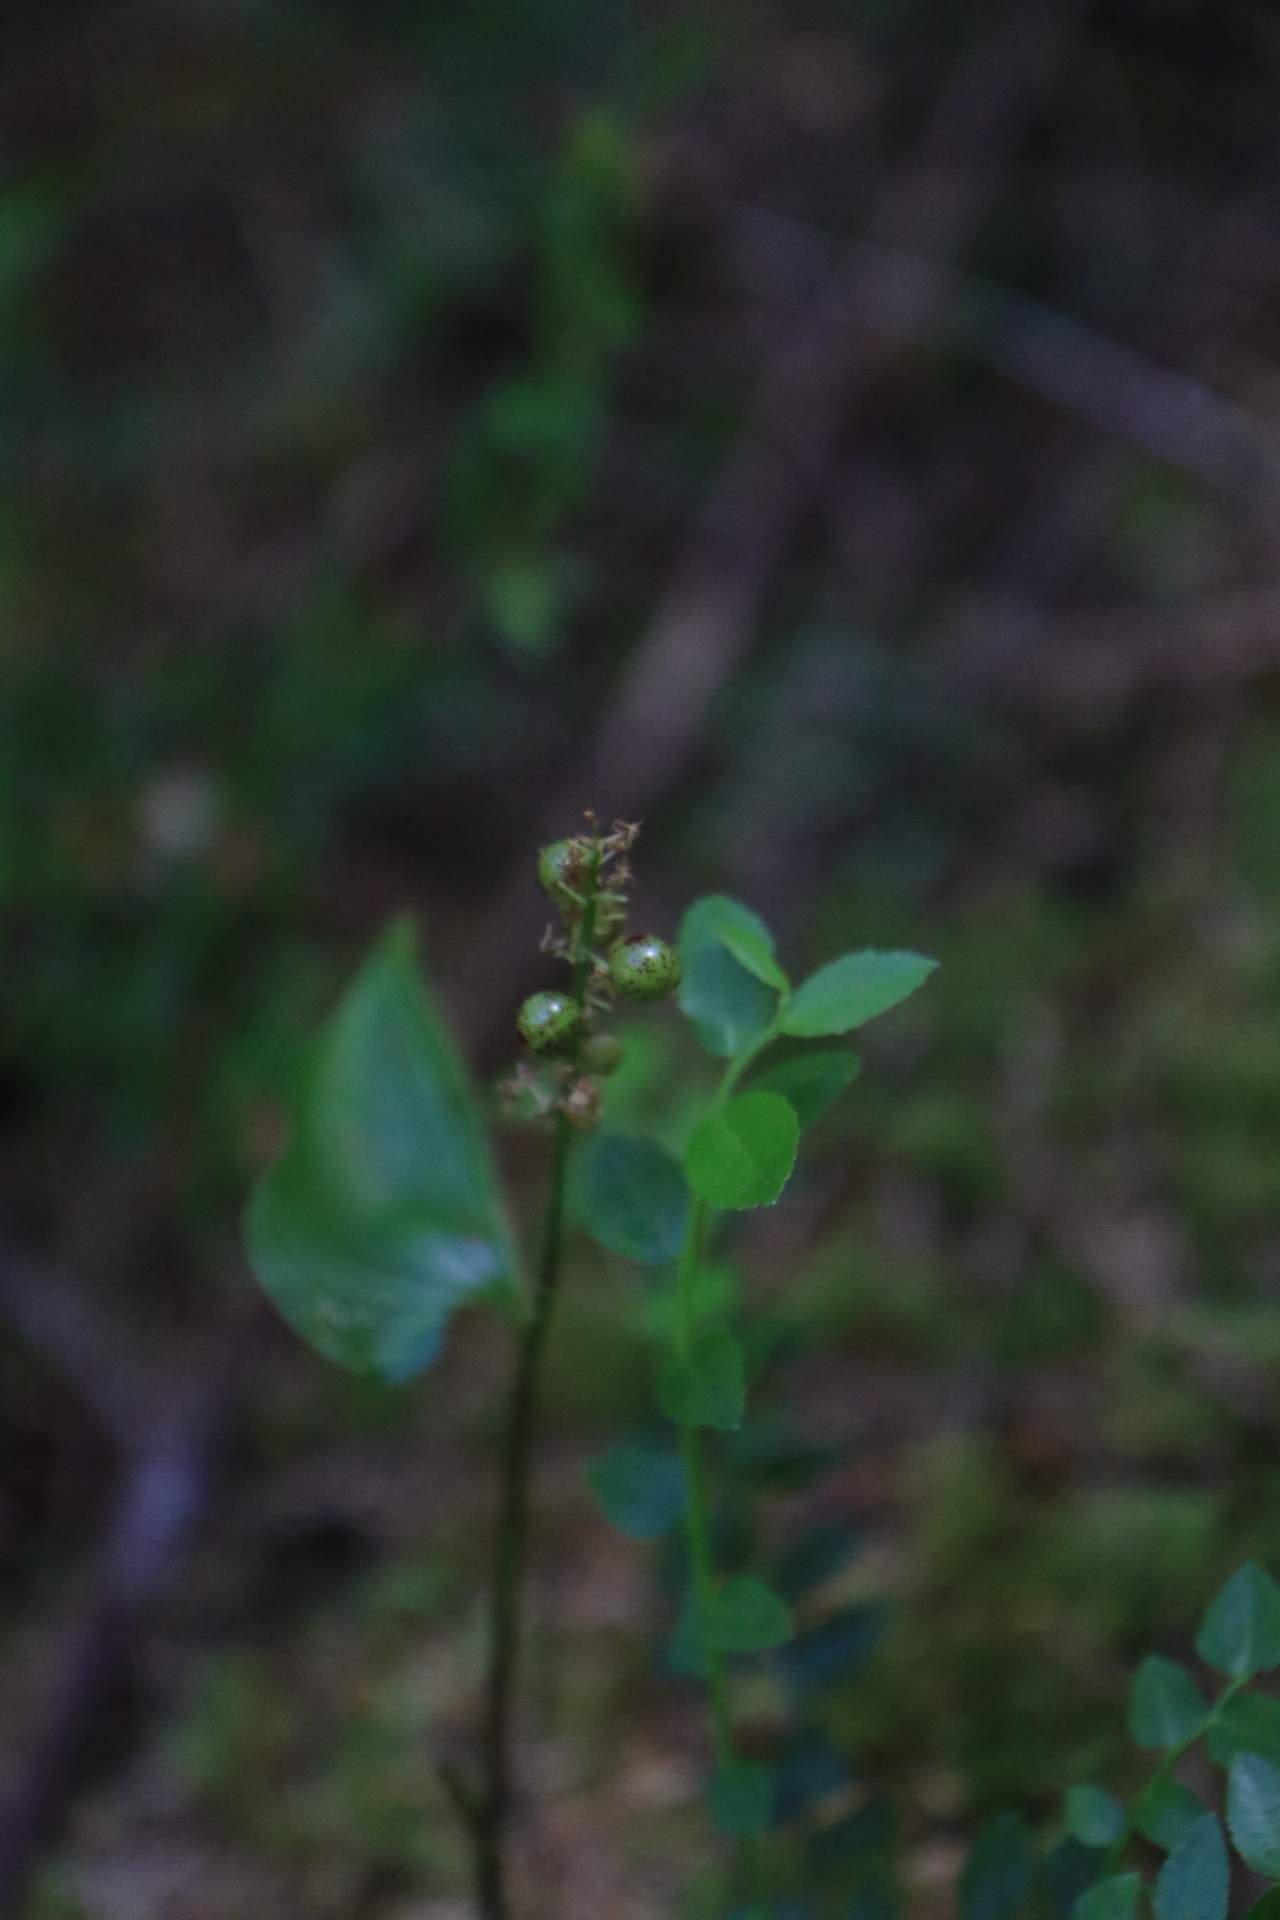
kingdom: Plantae
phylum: Tracheophyta
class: Liliopsida
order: Asparagales
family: Asparagaceae
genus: Maianthemum
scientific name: Maianthemum dilatatum
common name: False lily-of-the-valley
